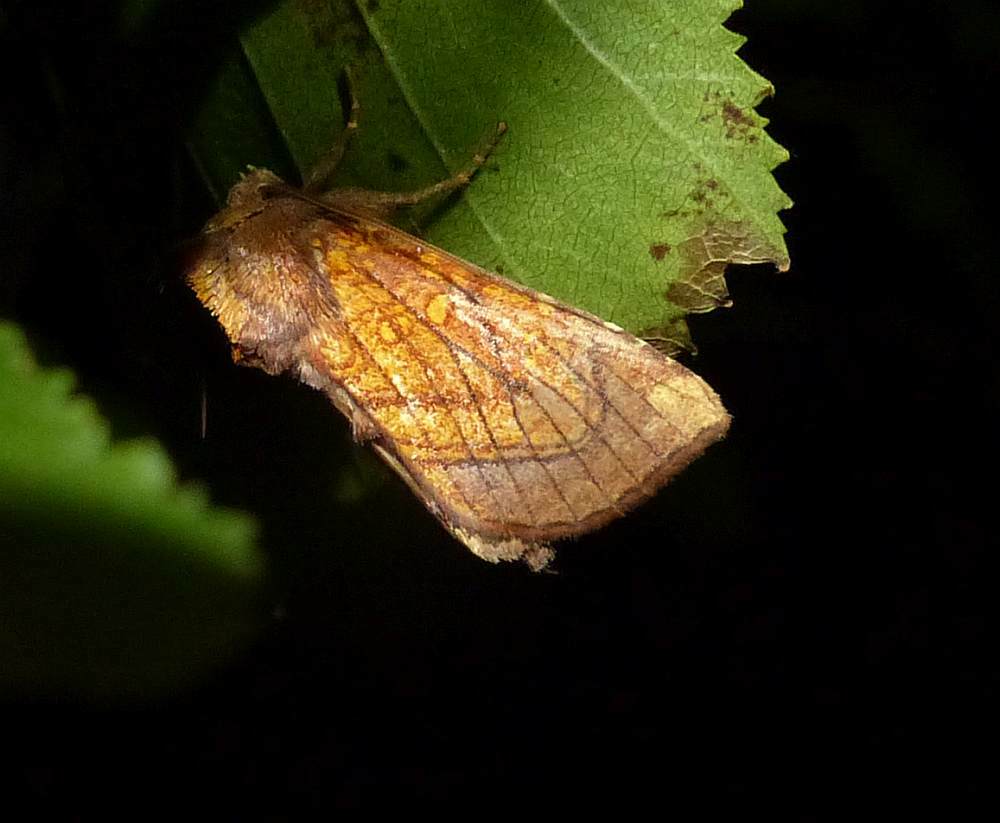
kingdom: Animalia
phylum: Arthropoda
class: Insecta
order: Lepidoptera
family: Noctuidae
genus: Papaipema
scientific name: Papaipema inquaesita
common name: Sensitive fern borer moth
